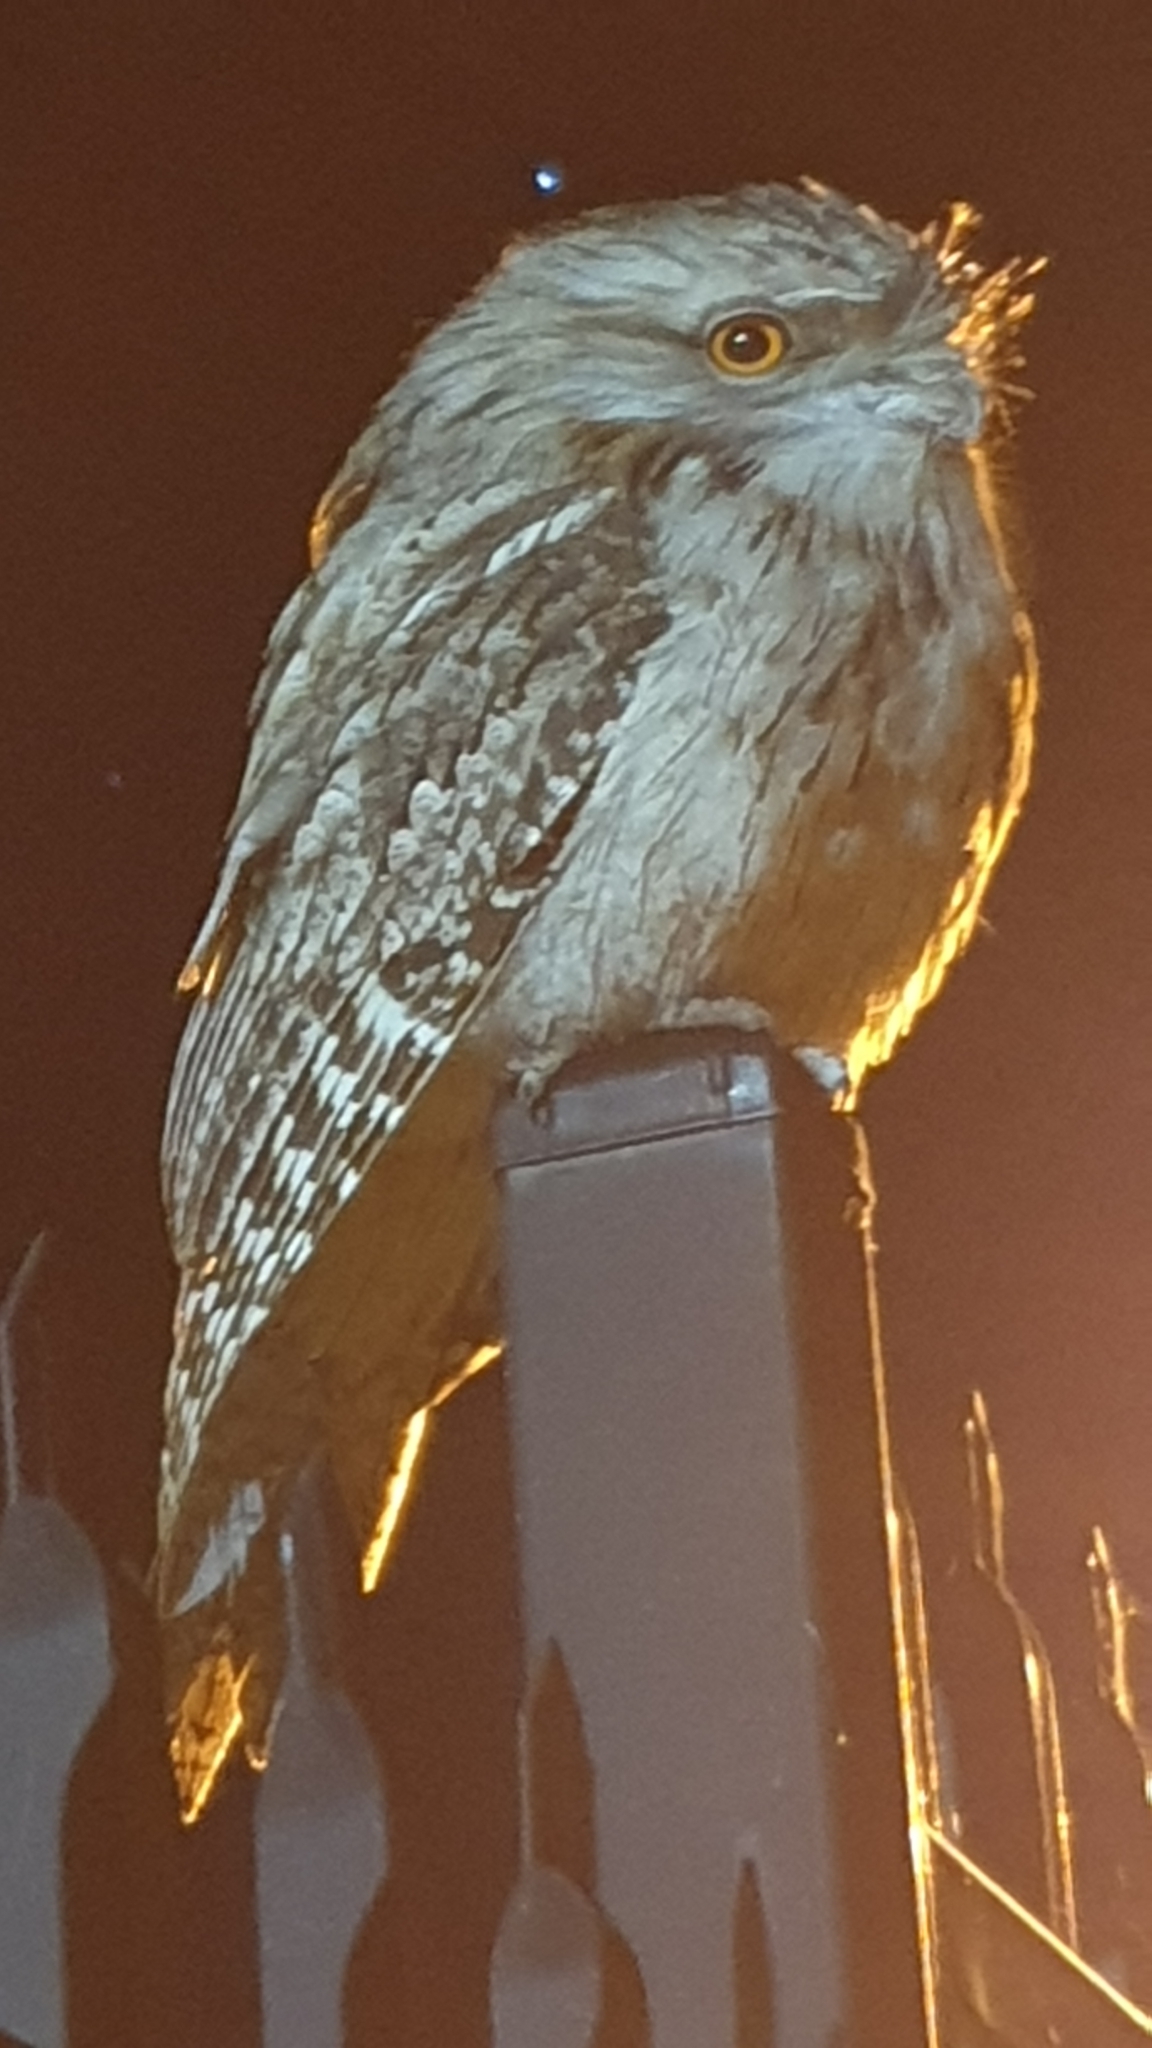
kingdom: Animalia
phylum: Chordata
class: Aves
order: Caprimulgiformes
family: Podargidae
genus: Podargus
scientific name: Podargus strigoides
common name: Tawny frogmouth
